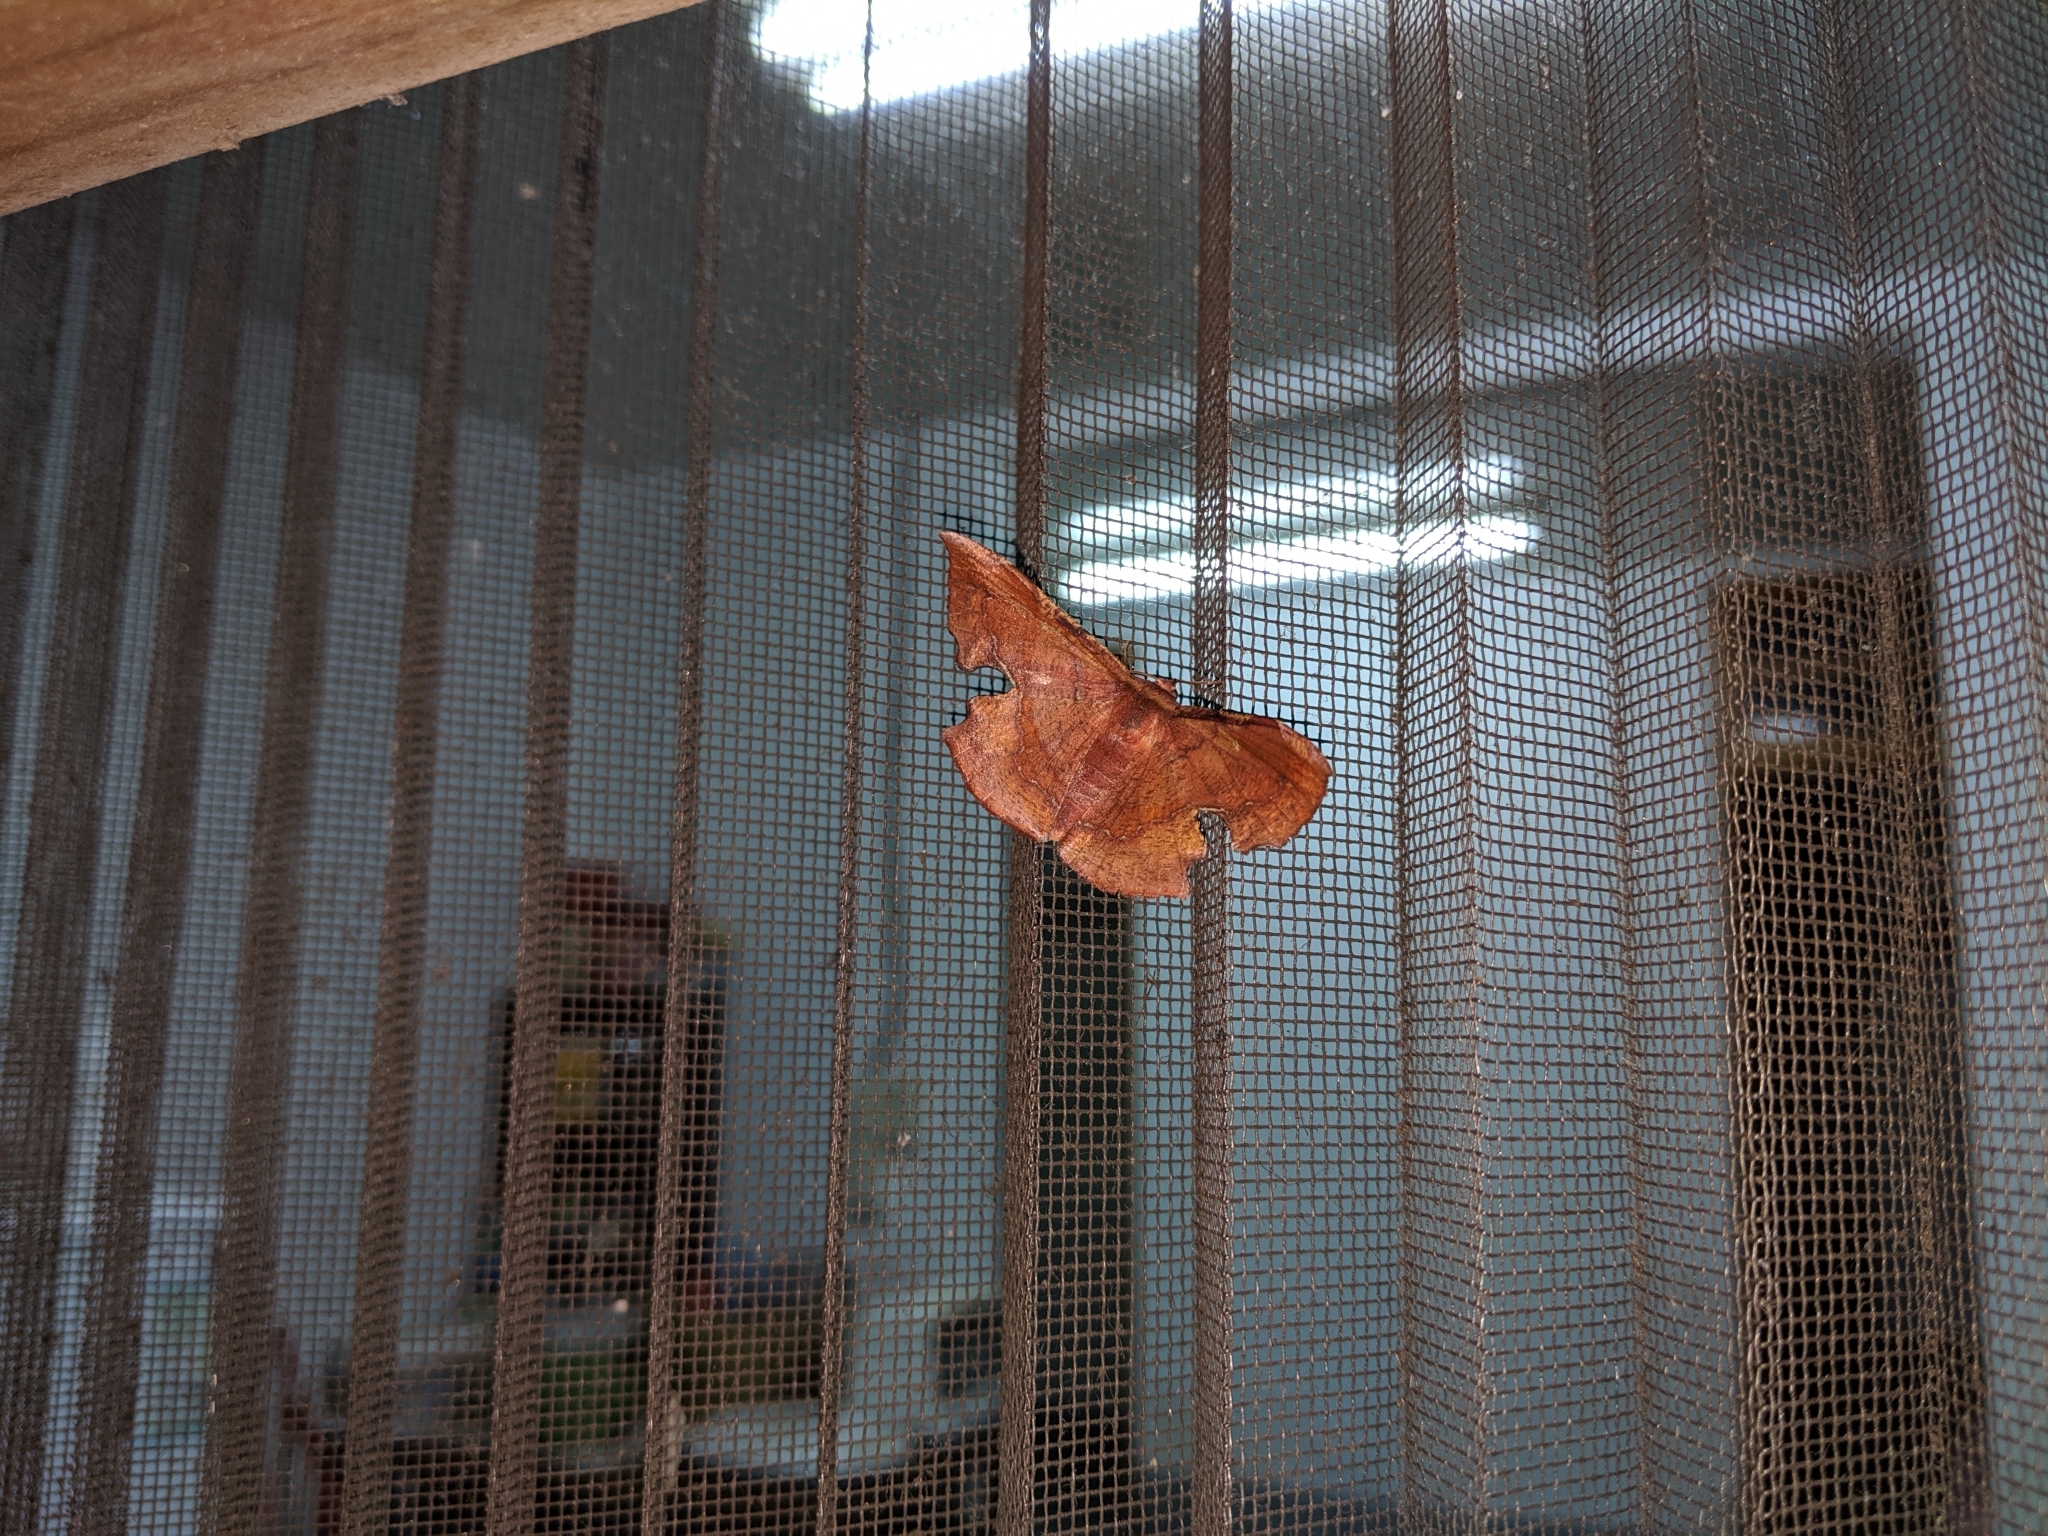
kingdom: Animalia
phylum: Arthropoda
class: Insecta
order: Lepidoptera
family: Geometridae
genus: Fascellina
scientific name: Fascellina chromataria
